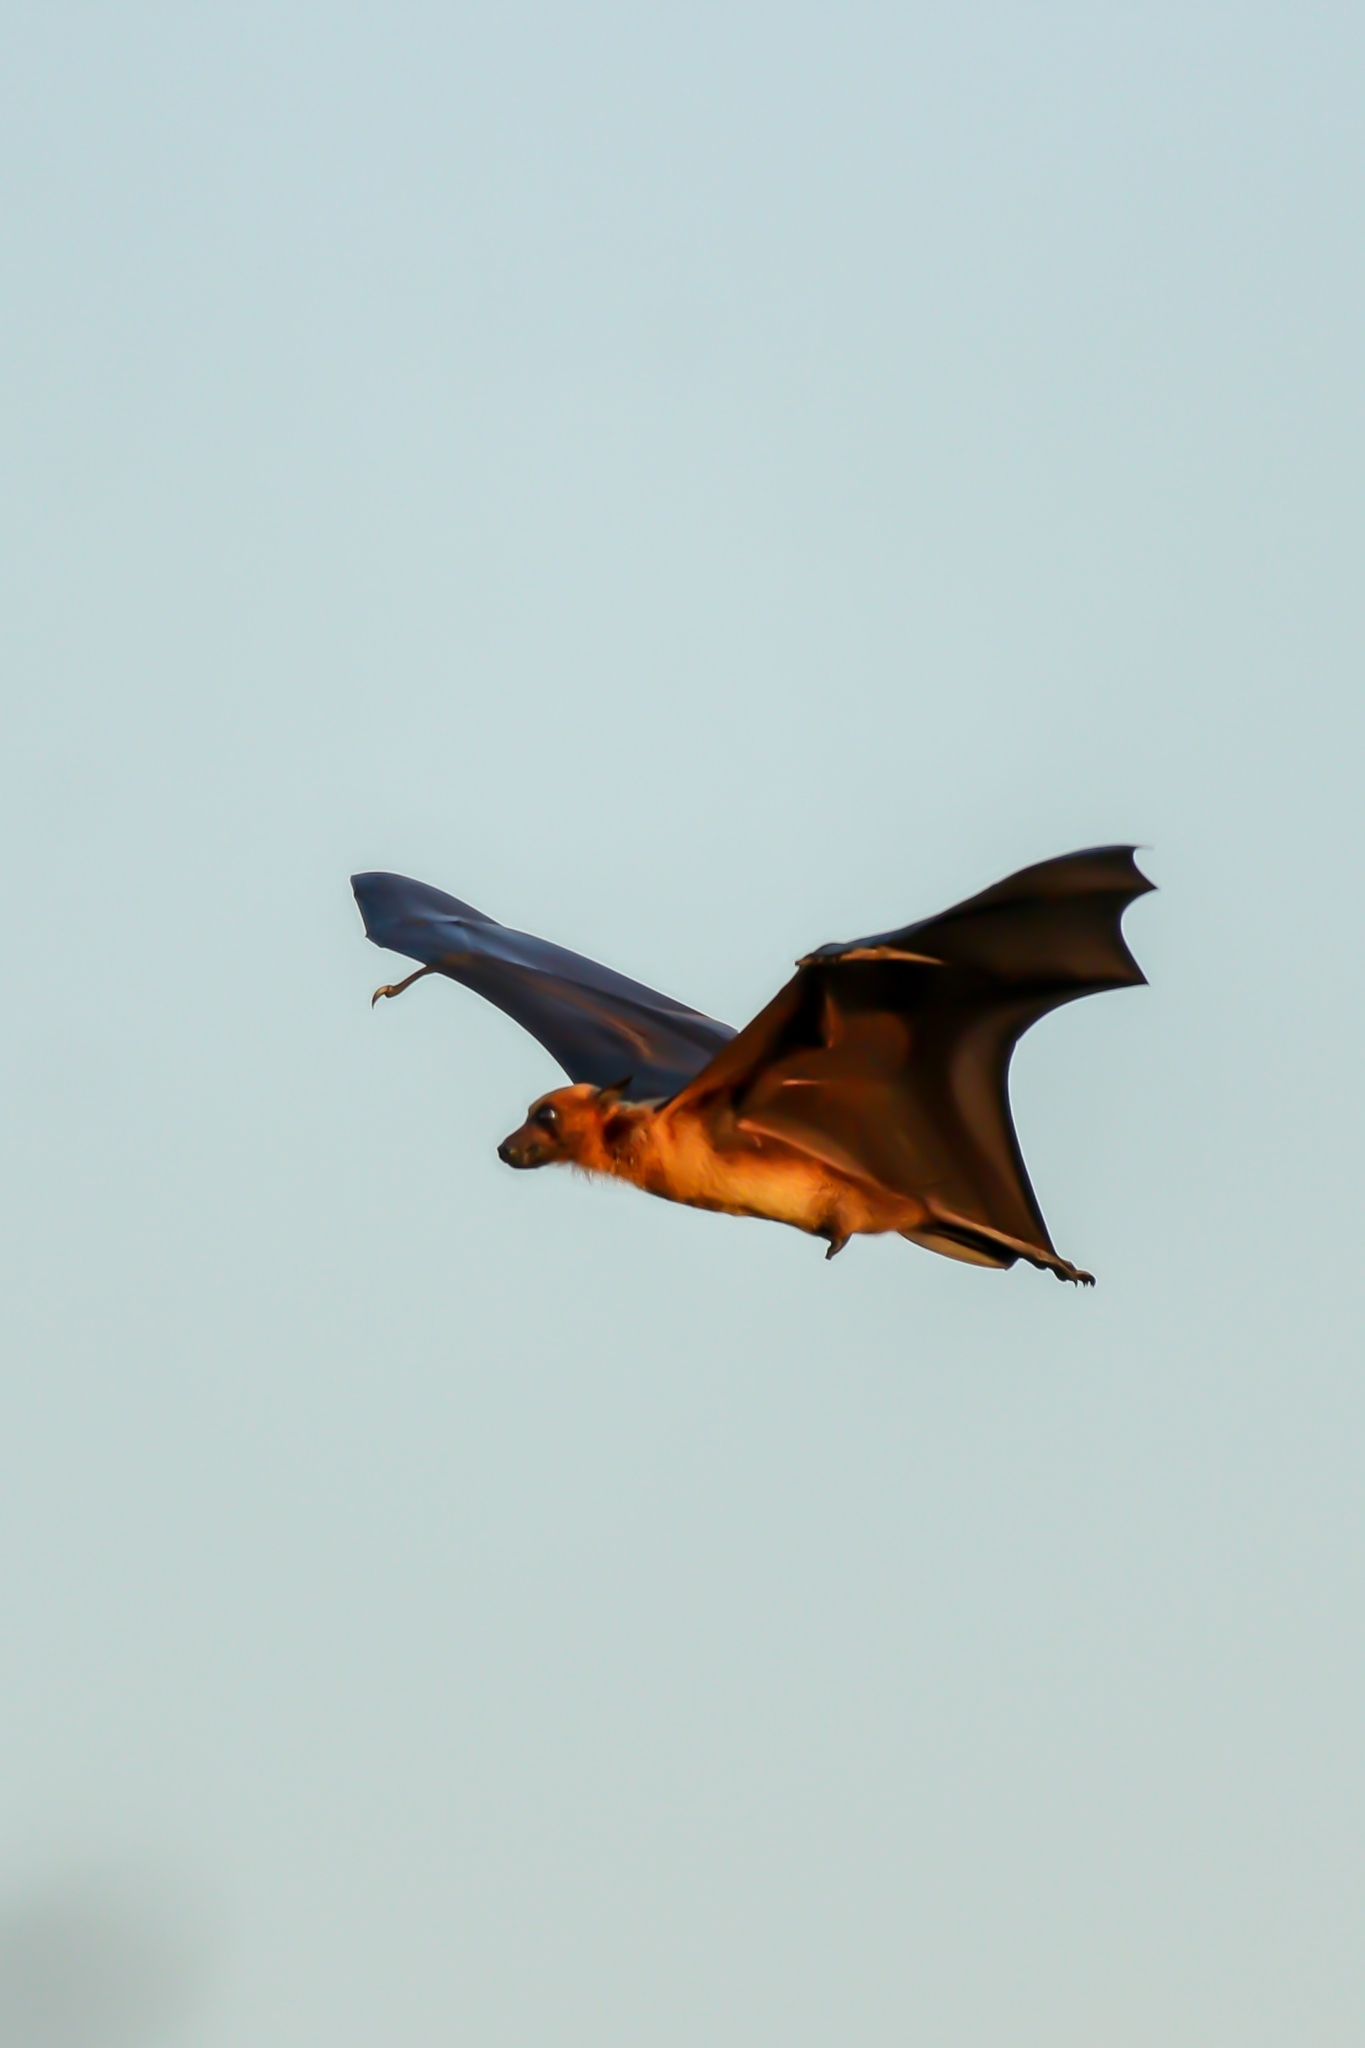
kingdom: Animalia
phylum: Chordata
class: Mammalia
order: Chiroptera
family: Pteropodidae
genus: Pteropus
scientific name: Pteropus vampyrus
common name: Large flying fox
